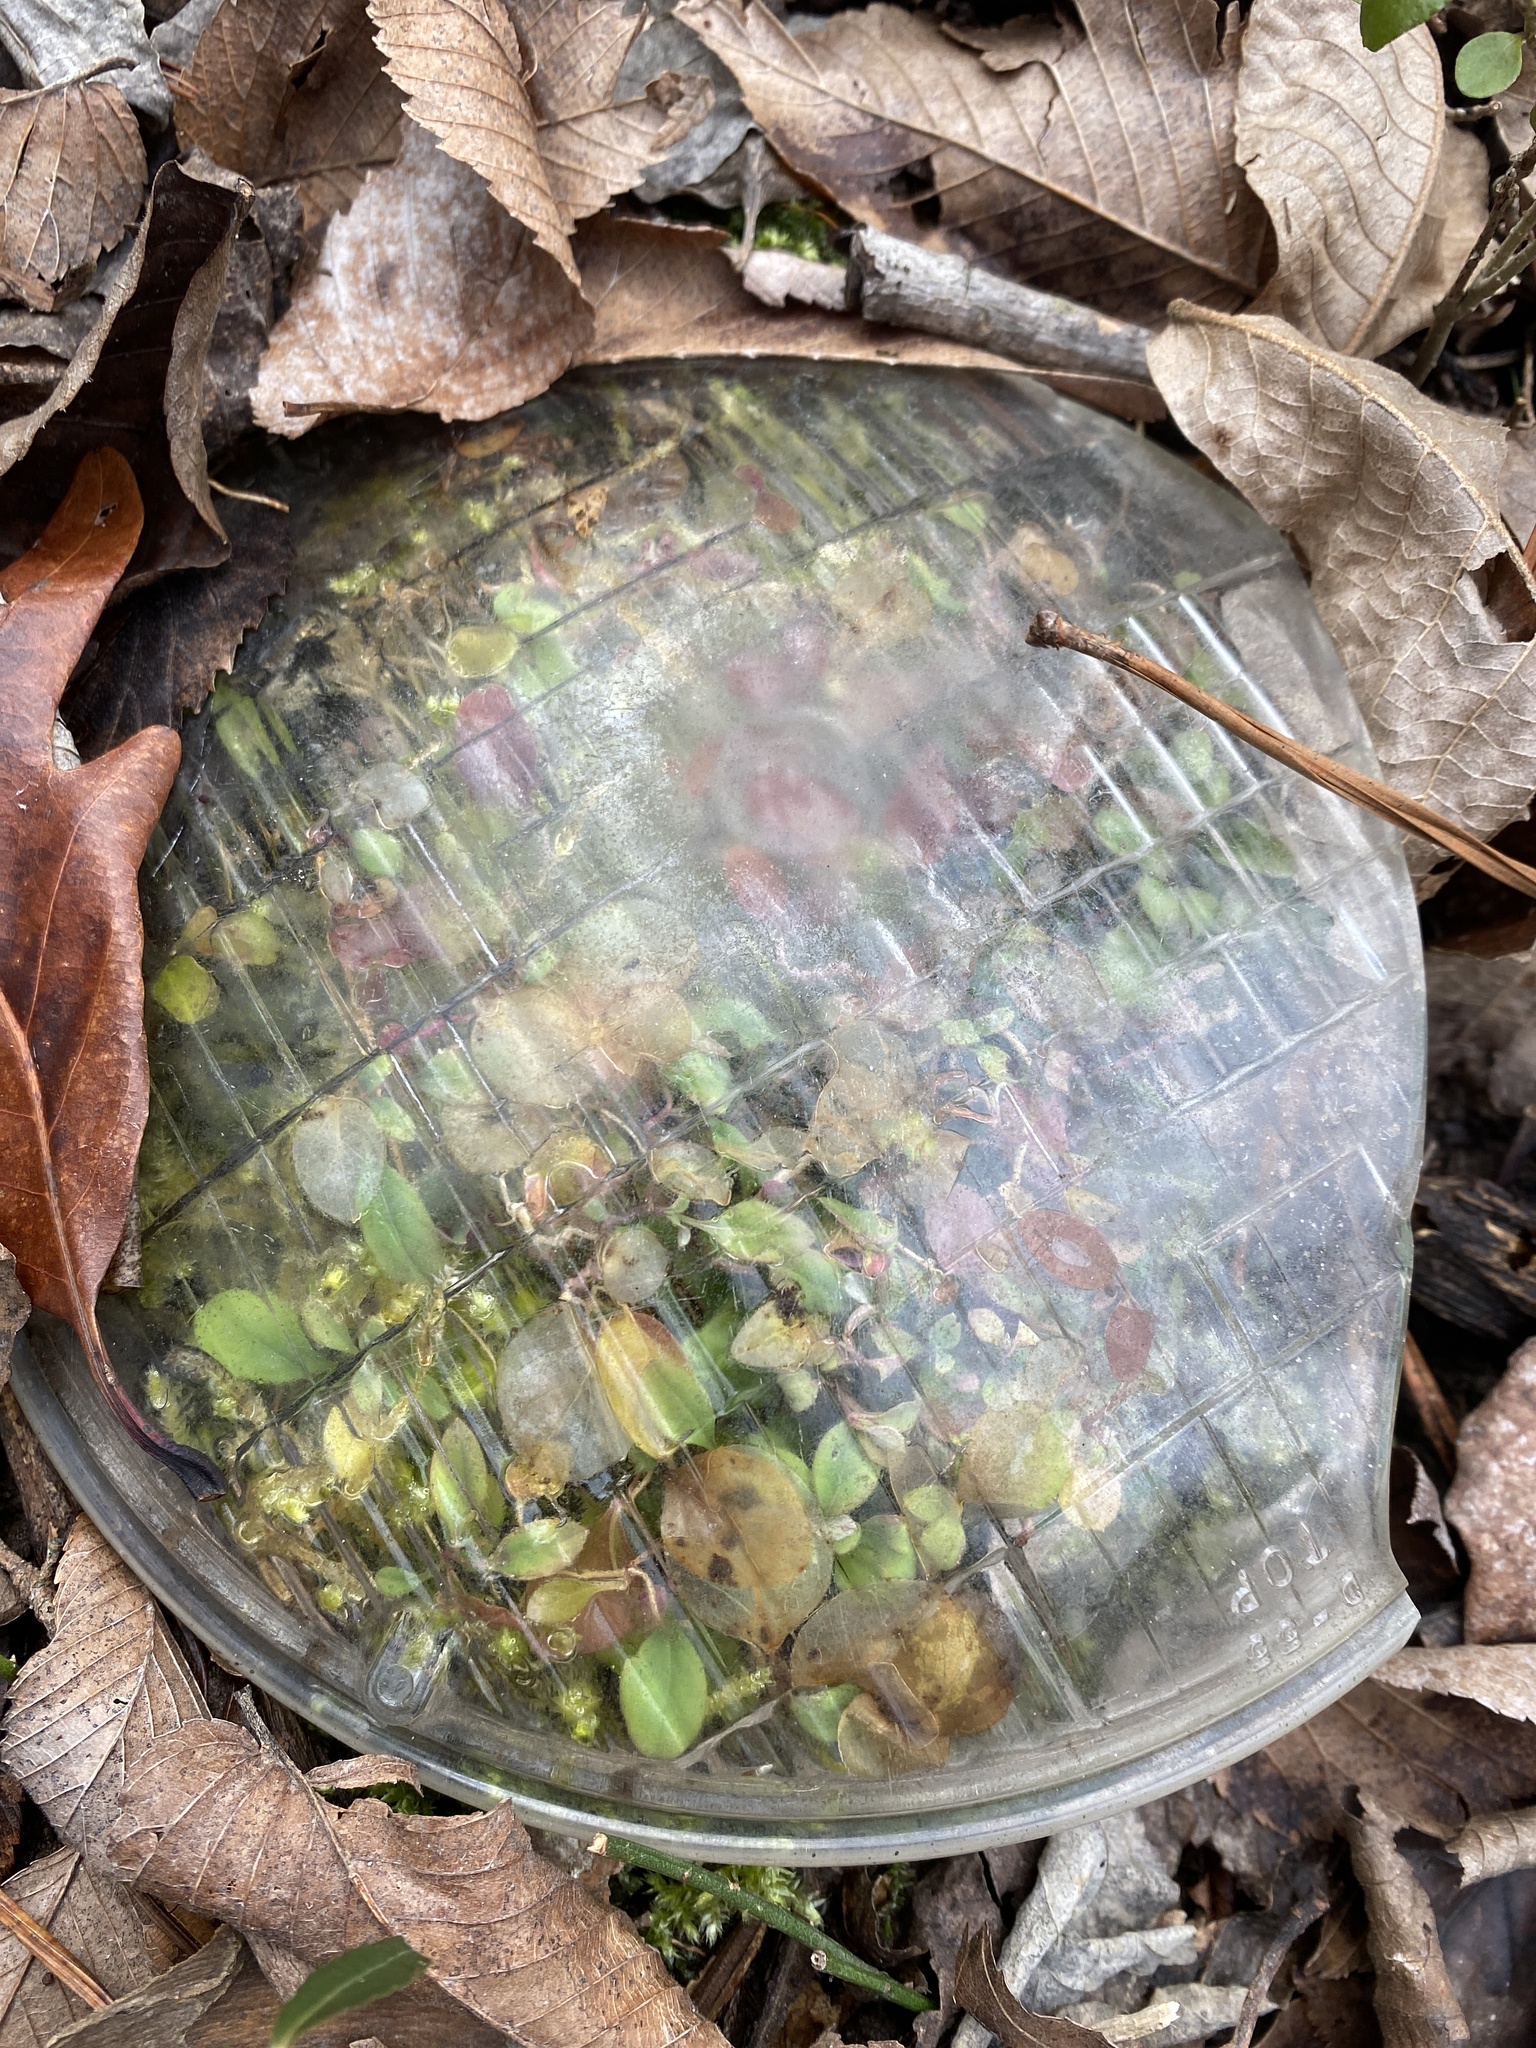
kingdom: Plantae
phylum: Tracheophyta
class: Magnoliopsida
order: Dipsacales
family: Caprifoliaceae
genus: Symphoricarpos
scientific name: Symphoricarpos orbiculatus
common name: Coralberry
